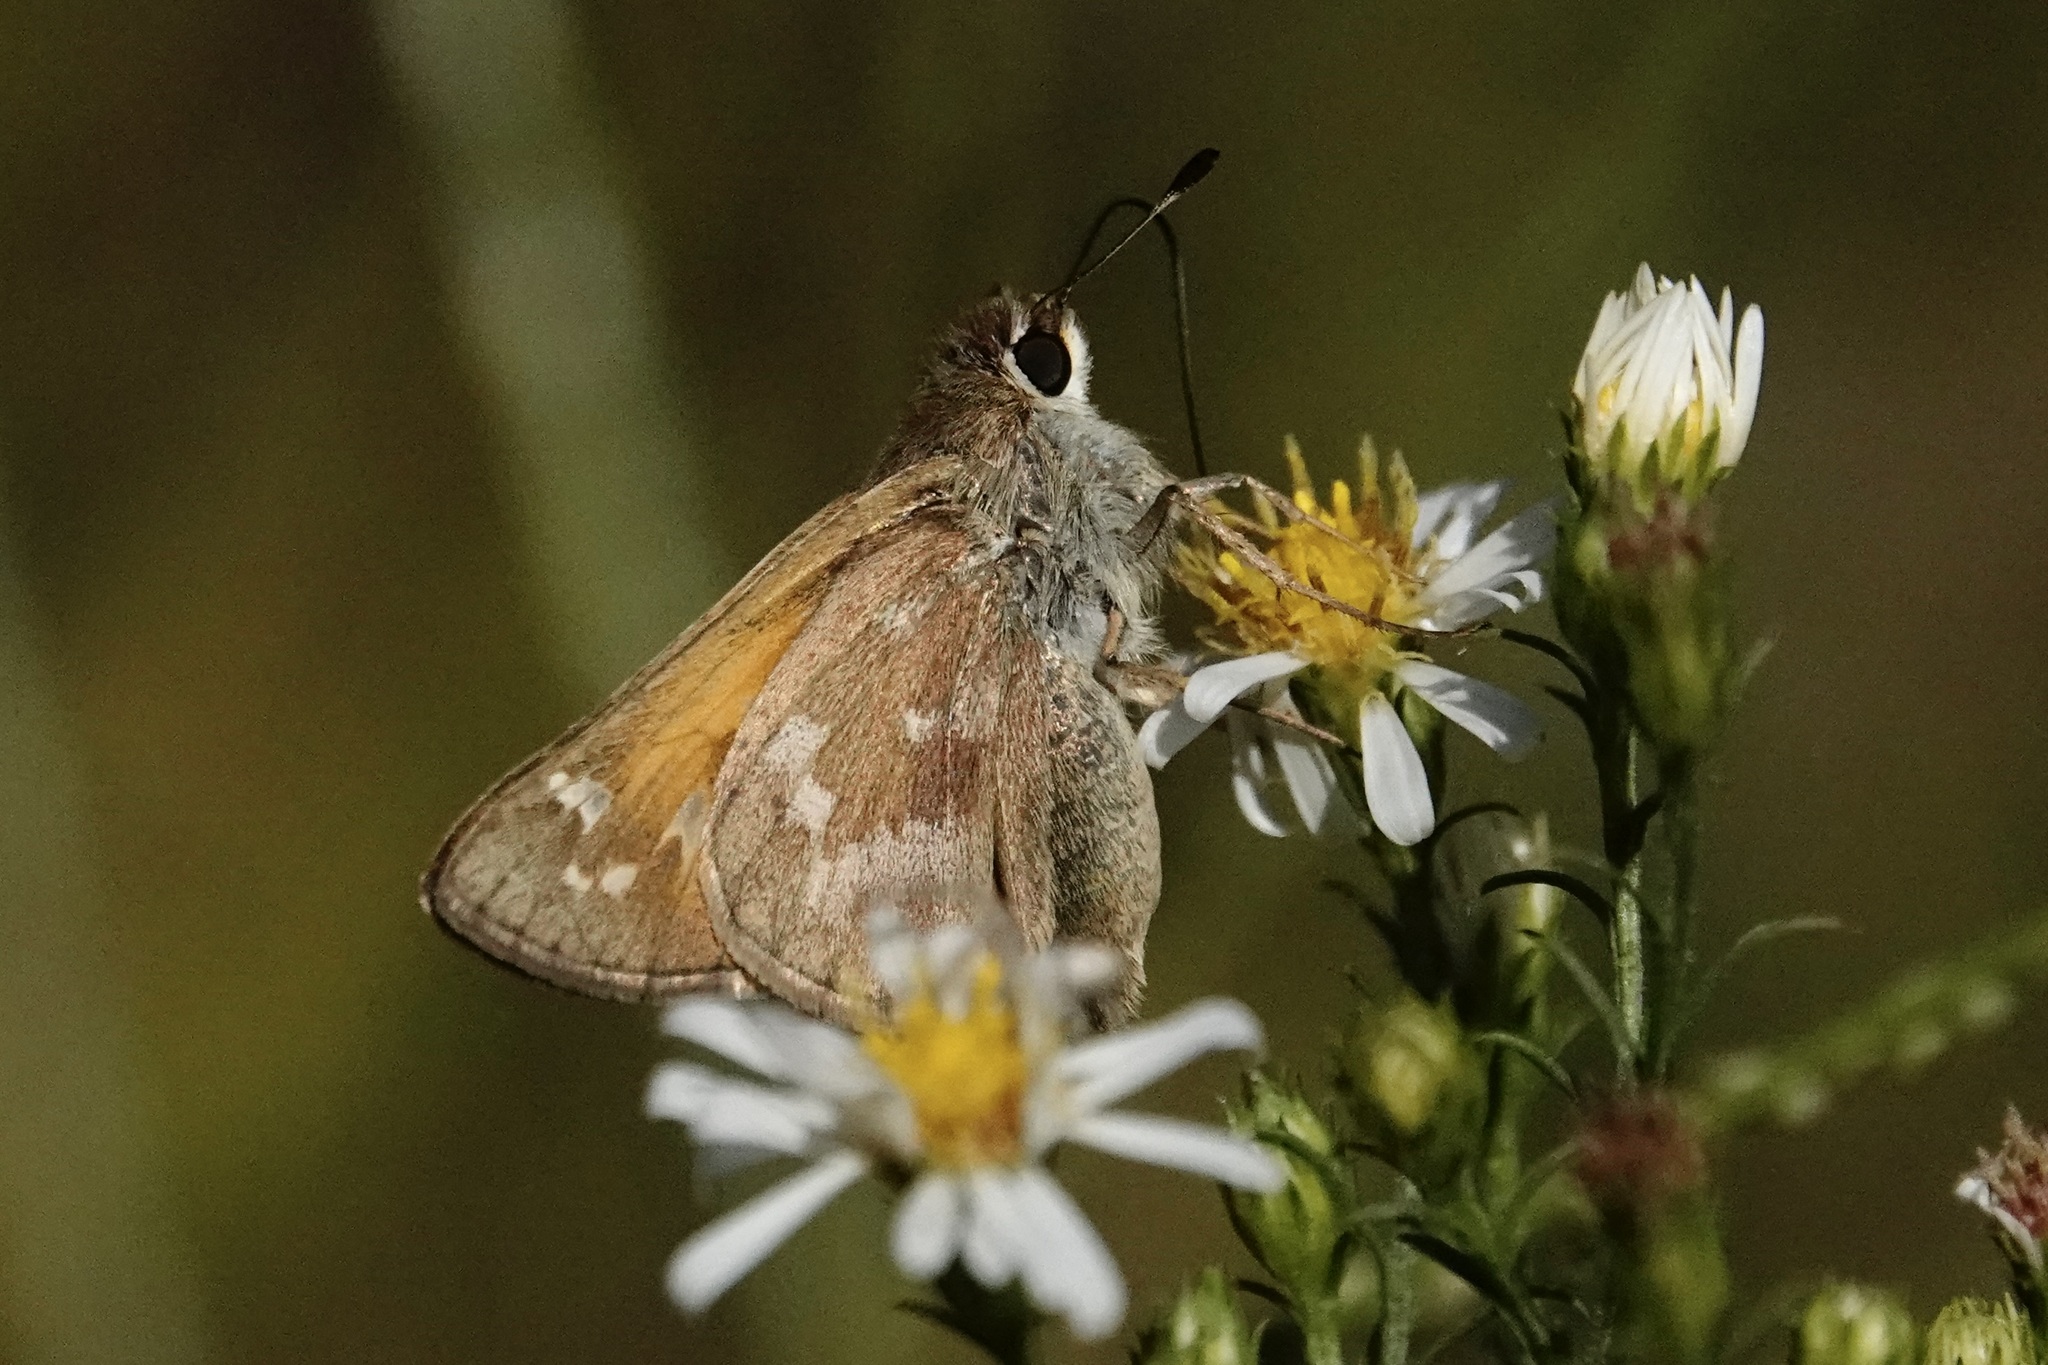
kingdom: Animalia
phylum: Arthropoda
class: Insecta
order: Lepidoptera
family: Hesperiidae
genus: Atalopedes
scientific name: Atalopedes
